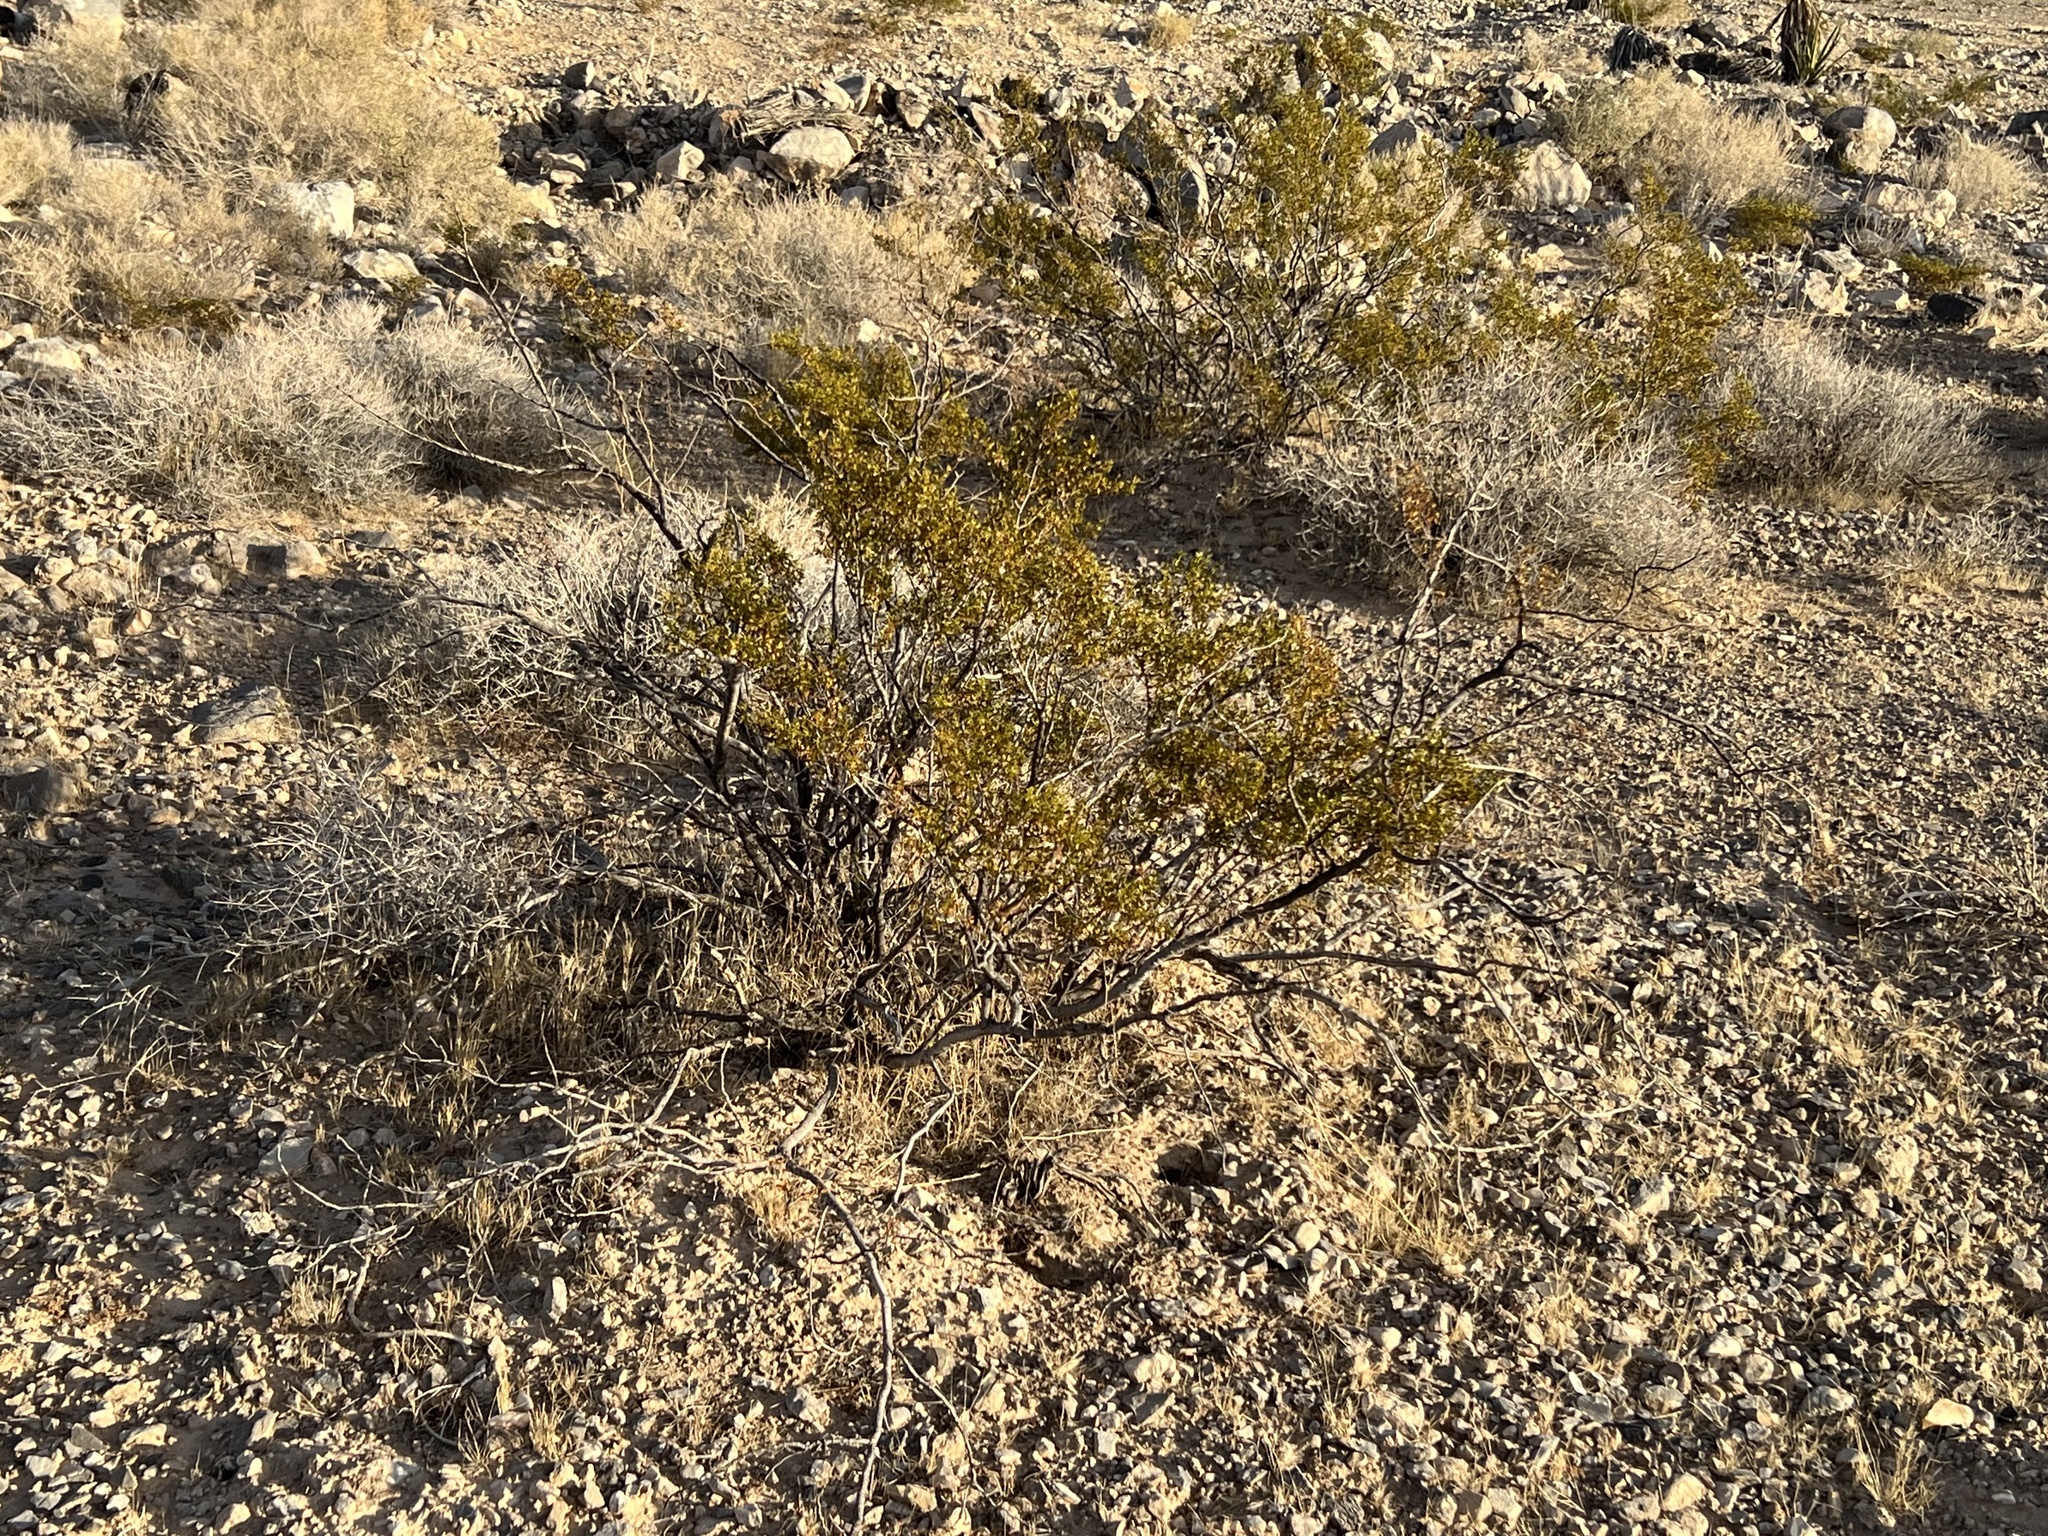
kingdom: Plantae
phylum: Tracheophyta
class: Magnoliopsida
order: Zygophyllales
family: Zygophyllaceae
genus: Larrea
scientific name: Larrea tridentata
